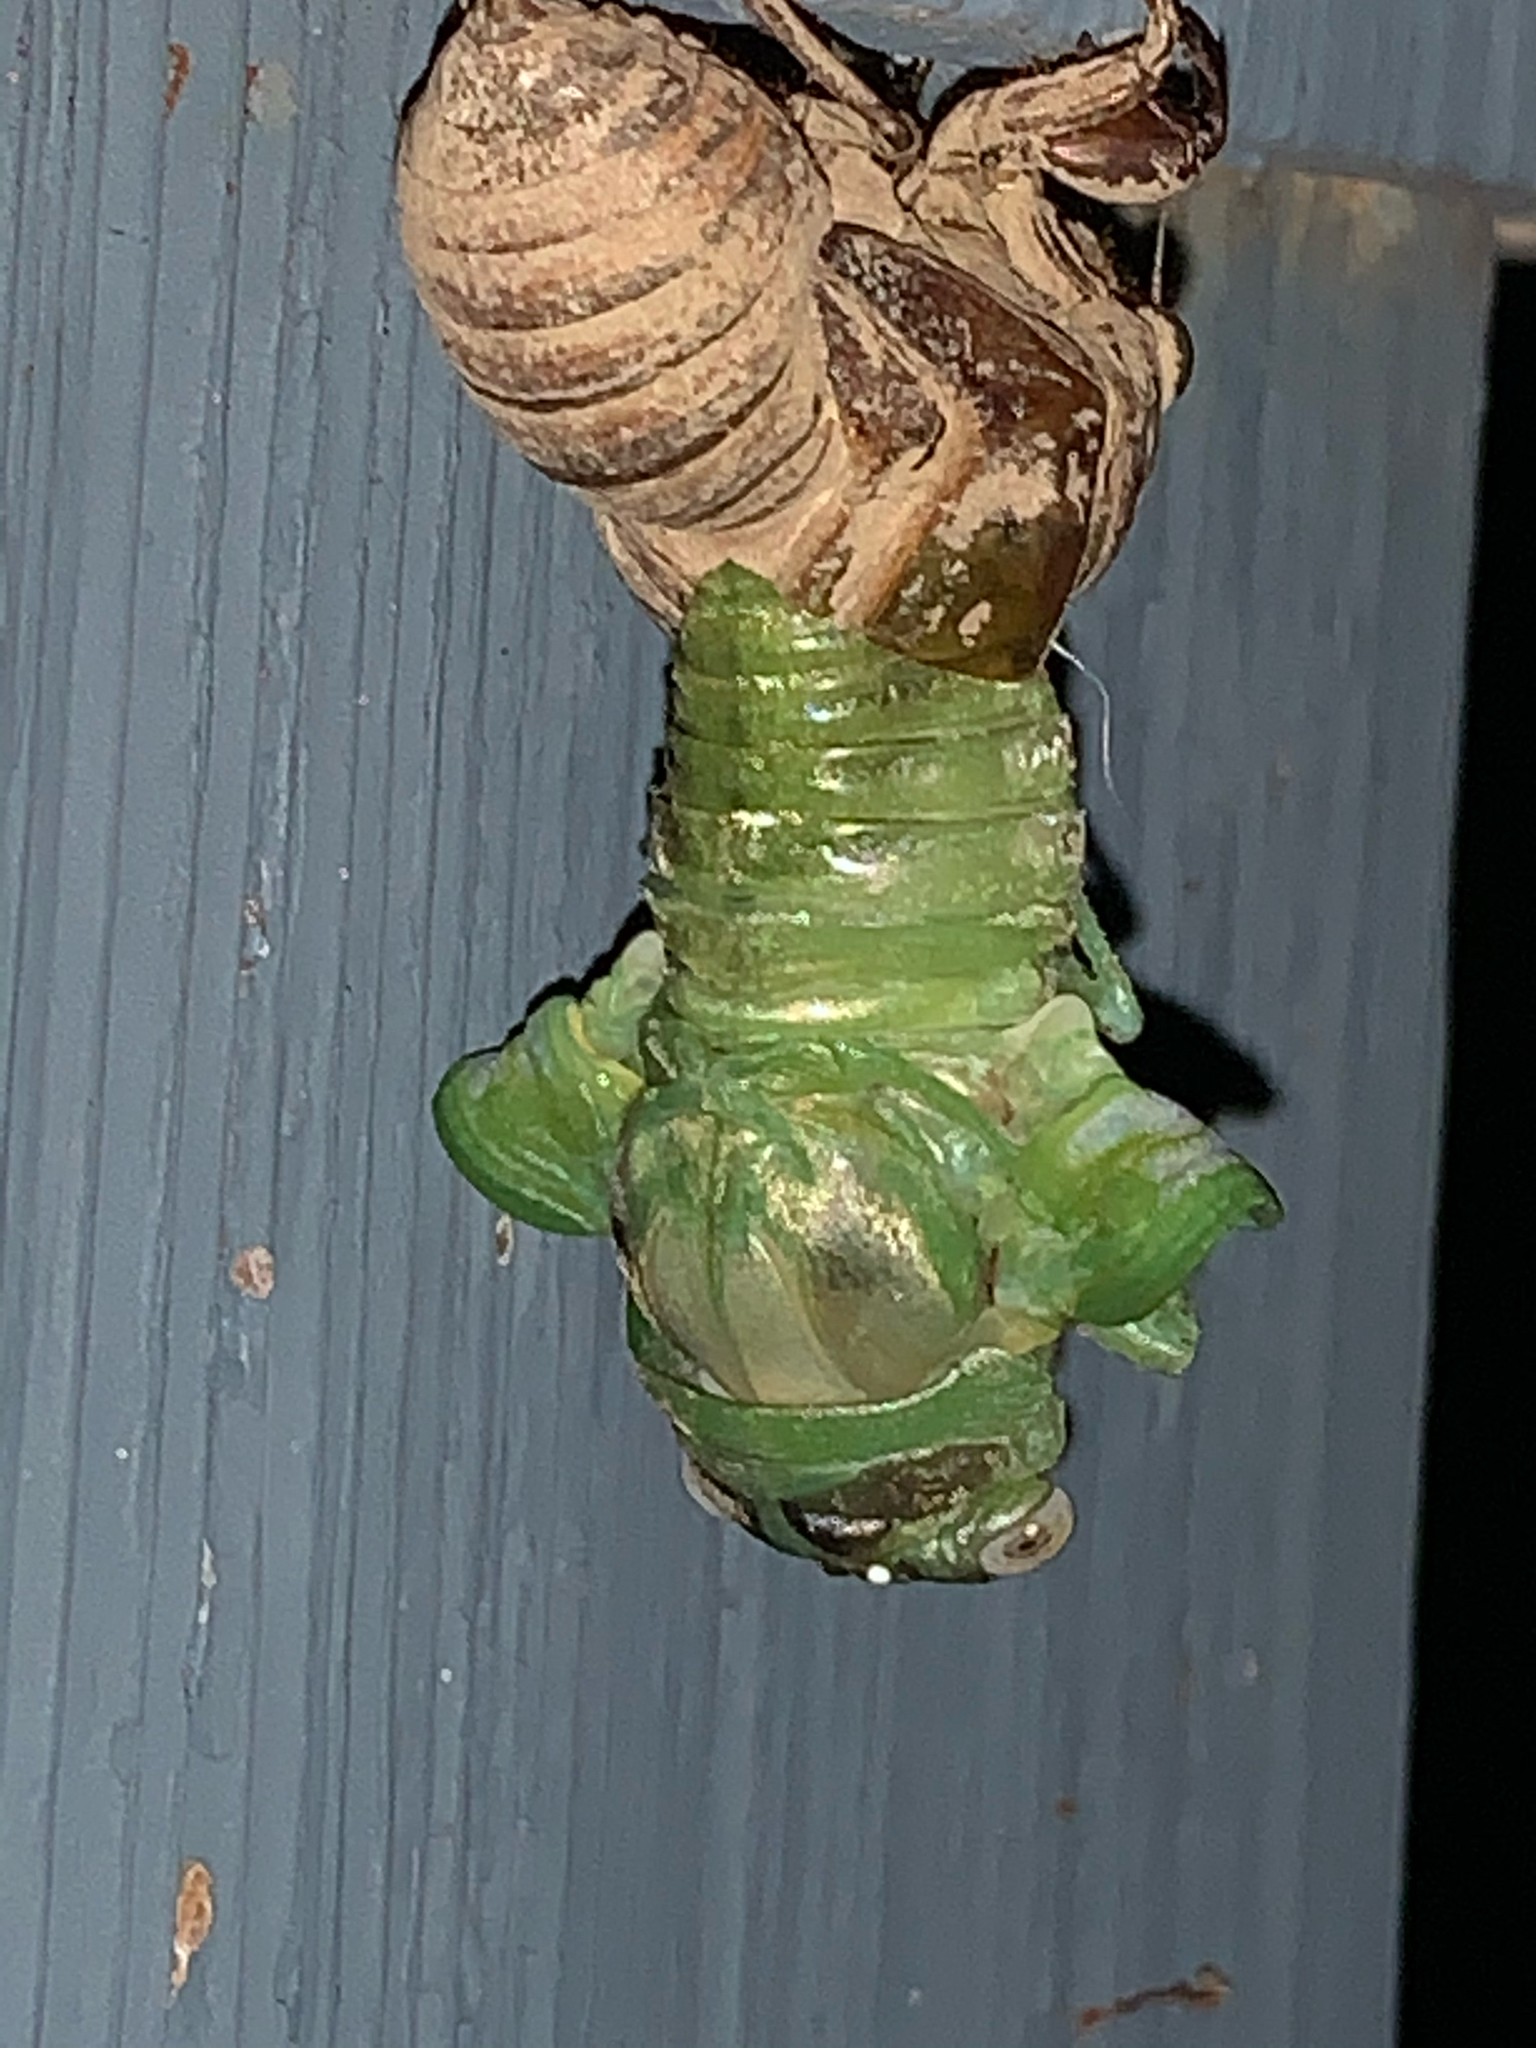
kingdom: Animalia
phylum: Arthropoda
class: Insecta
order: Hemiptera
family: Cicadidae
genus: Diceroprocta
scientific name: Diceroprocta grossa
